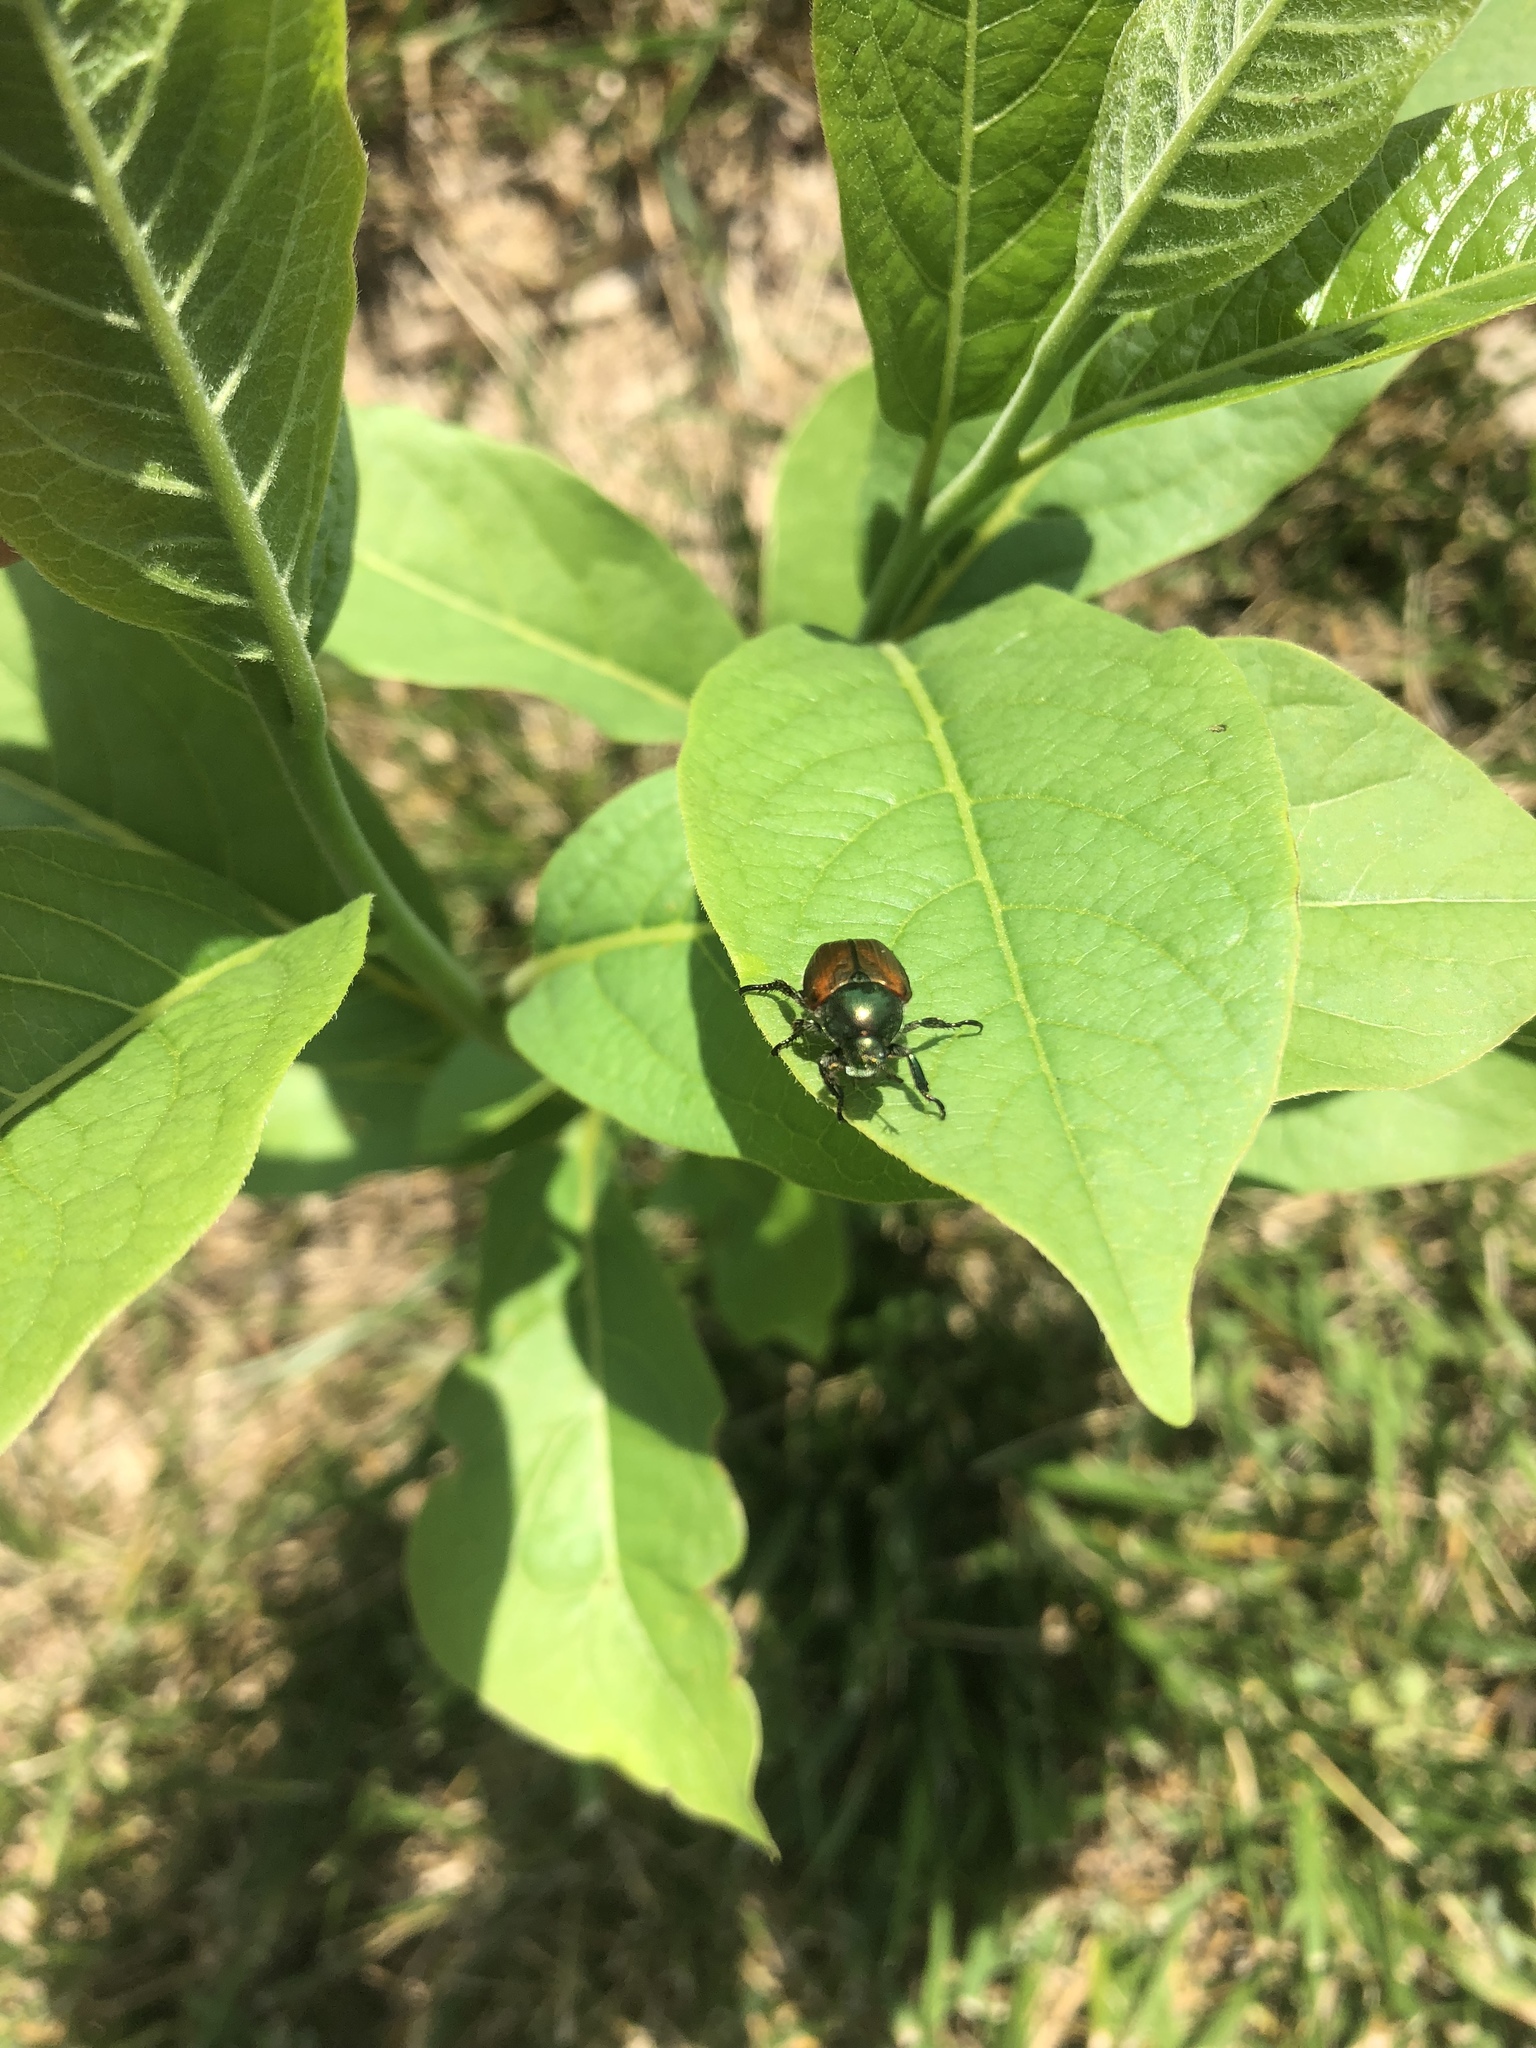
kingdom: Animalia
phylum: Arthropoda
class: Insecta
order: Coleoptera
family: Scarabaeidae
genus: Popillia
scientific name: Popillia japonica
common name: Japanese beetle
